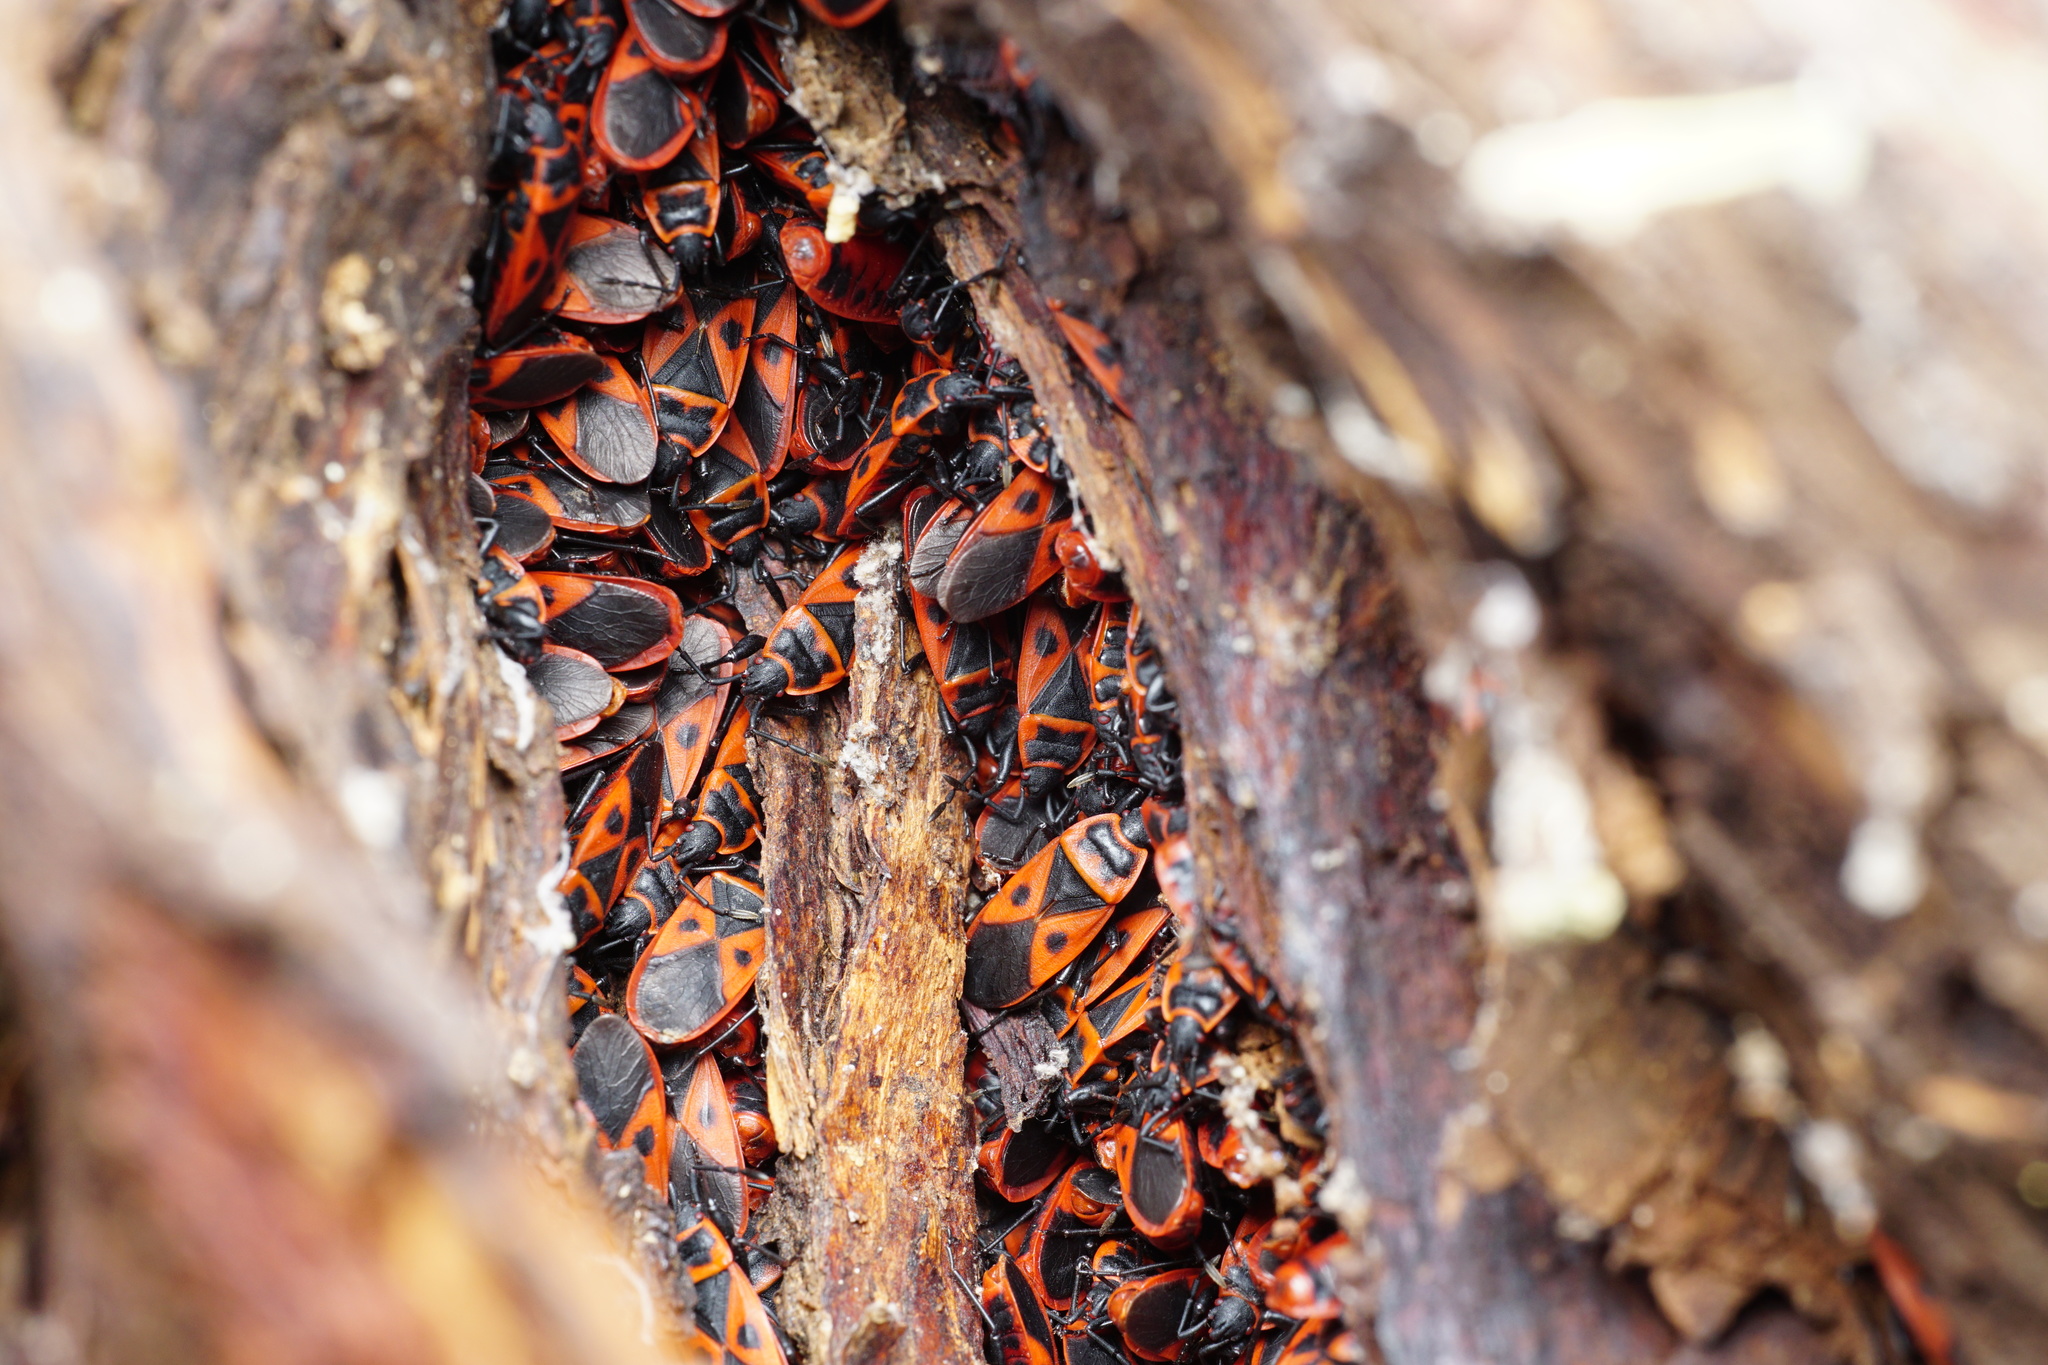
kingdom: Animalia
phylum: Arthropoda
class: Insecta
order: Hemiptera
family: Pyrrhocoridae
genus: Scantius
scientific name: Scantius aegyptius
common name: Red bug
